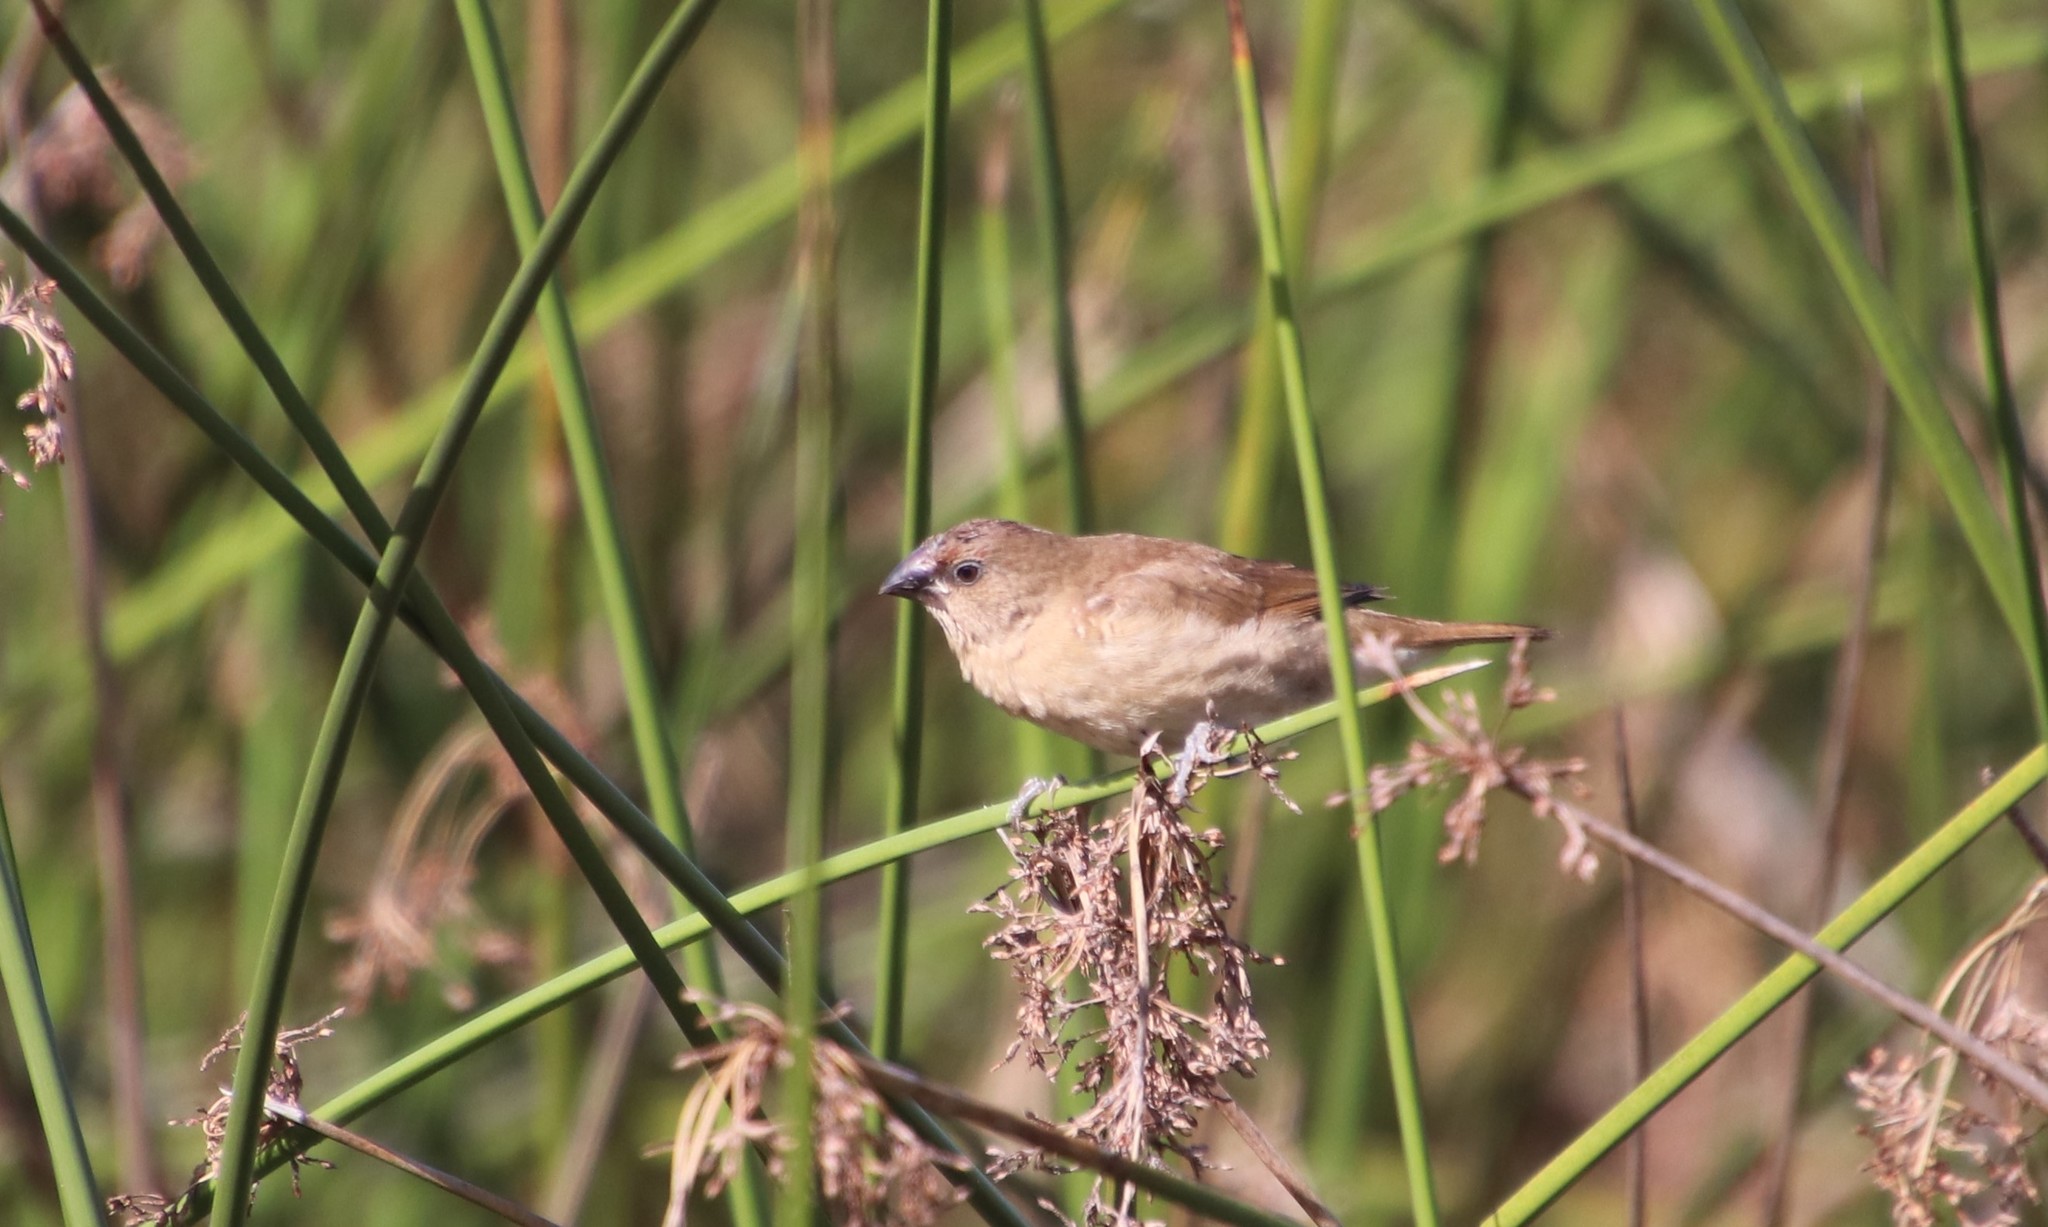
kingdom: Animalia
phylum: Chordata
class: Aves
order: Passeriformes
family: Estrildidae
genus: Lonchura
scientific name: Lonchura punctulata
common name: Scaly-breasted munia
